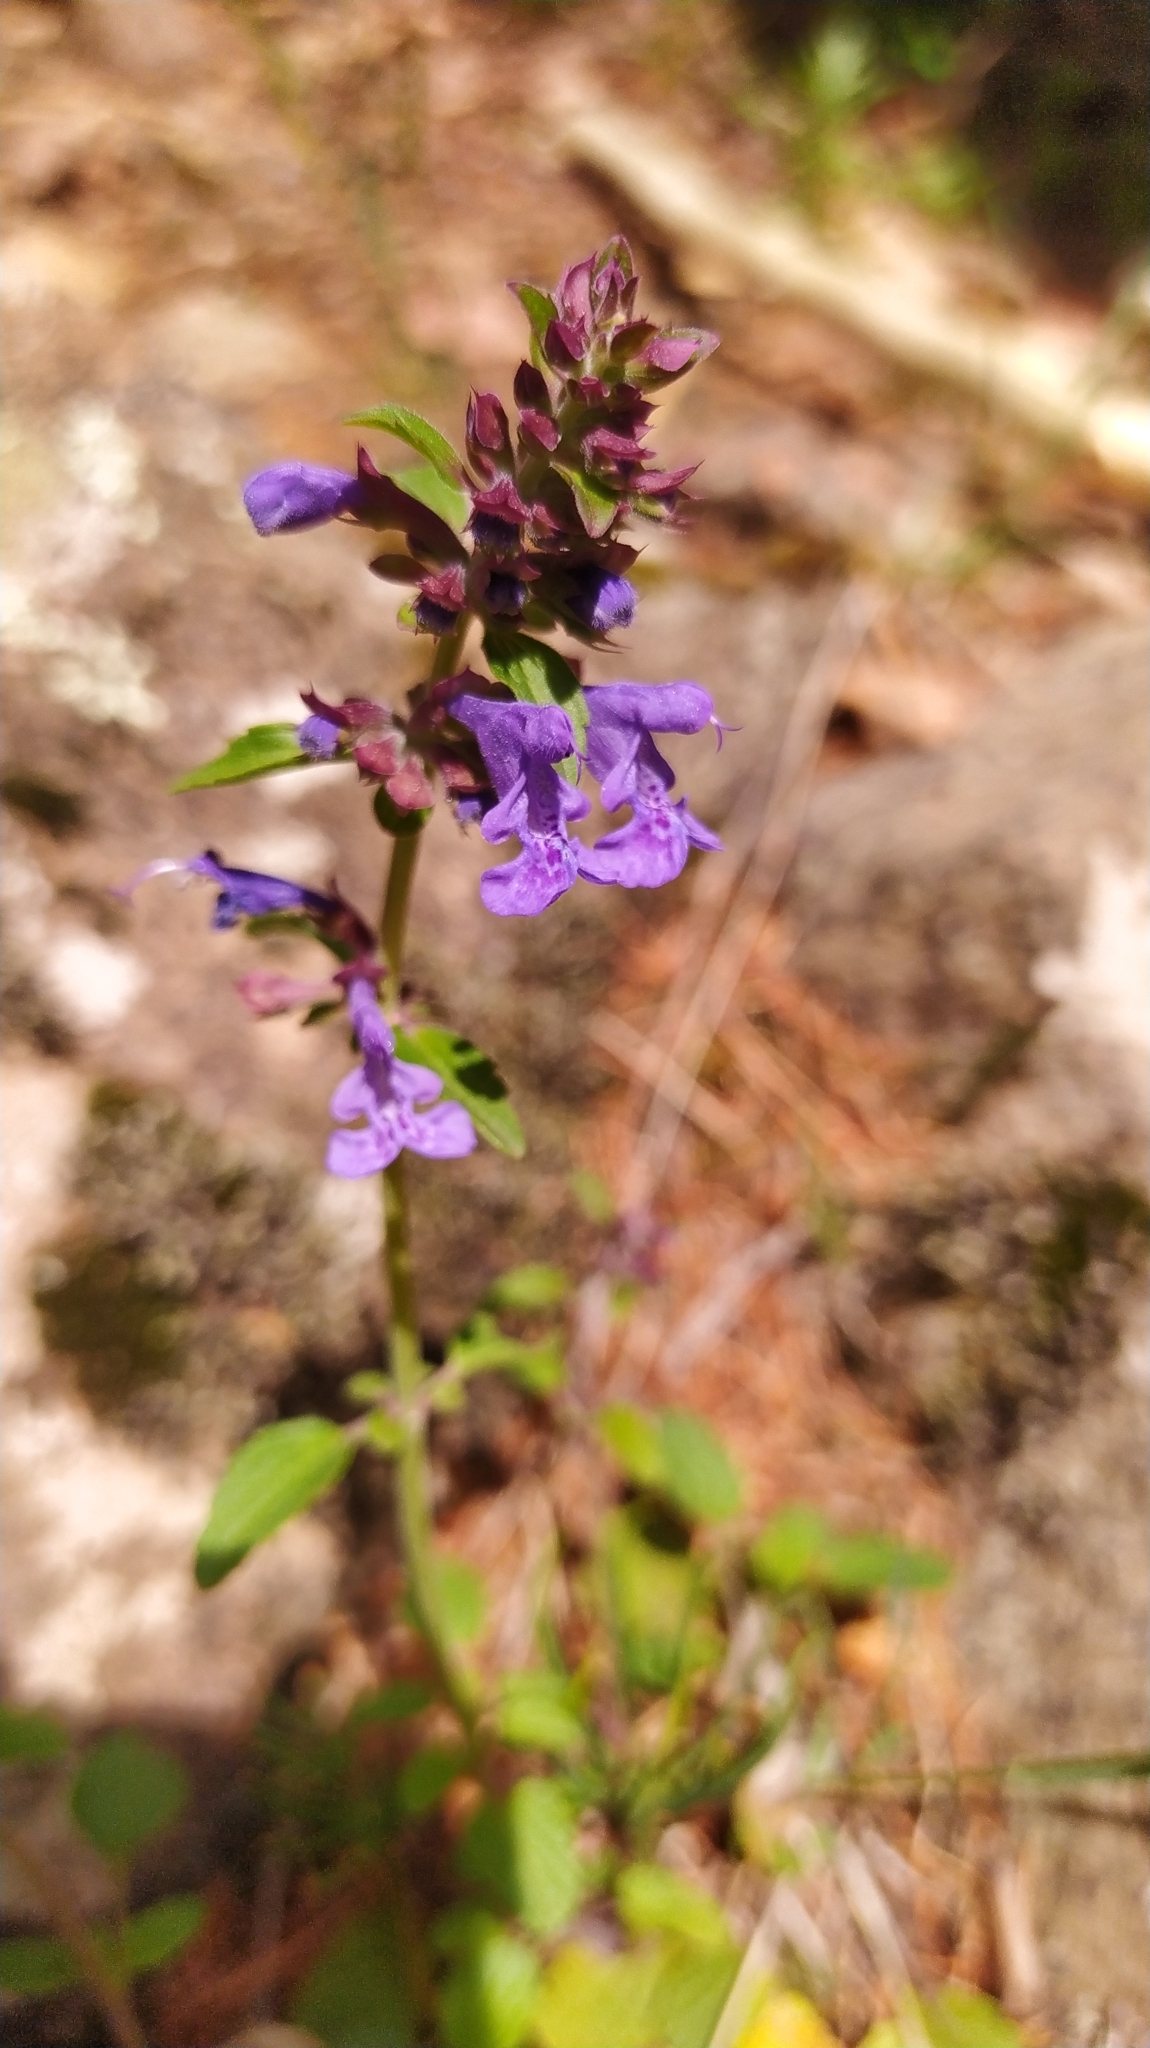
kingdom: Plantae
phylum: Tracheophyta
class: Magnoliopsida
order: Lamiales
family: Lamiaceae
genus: Dracocephalum
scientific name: Dracocephalum nutans
